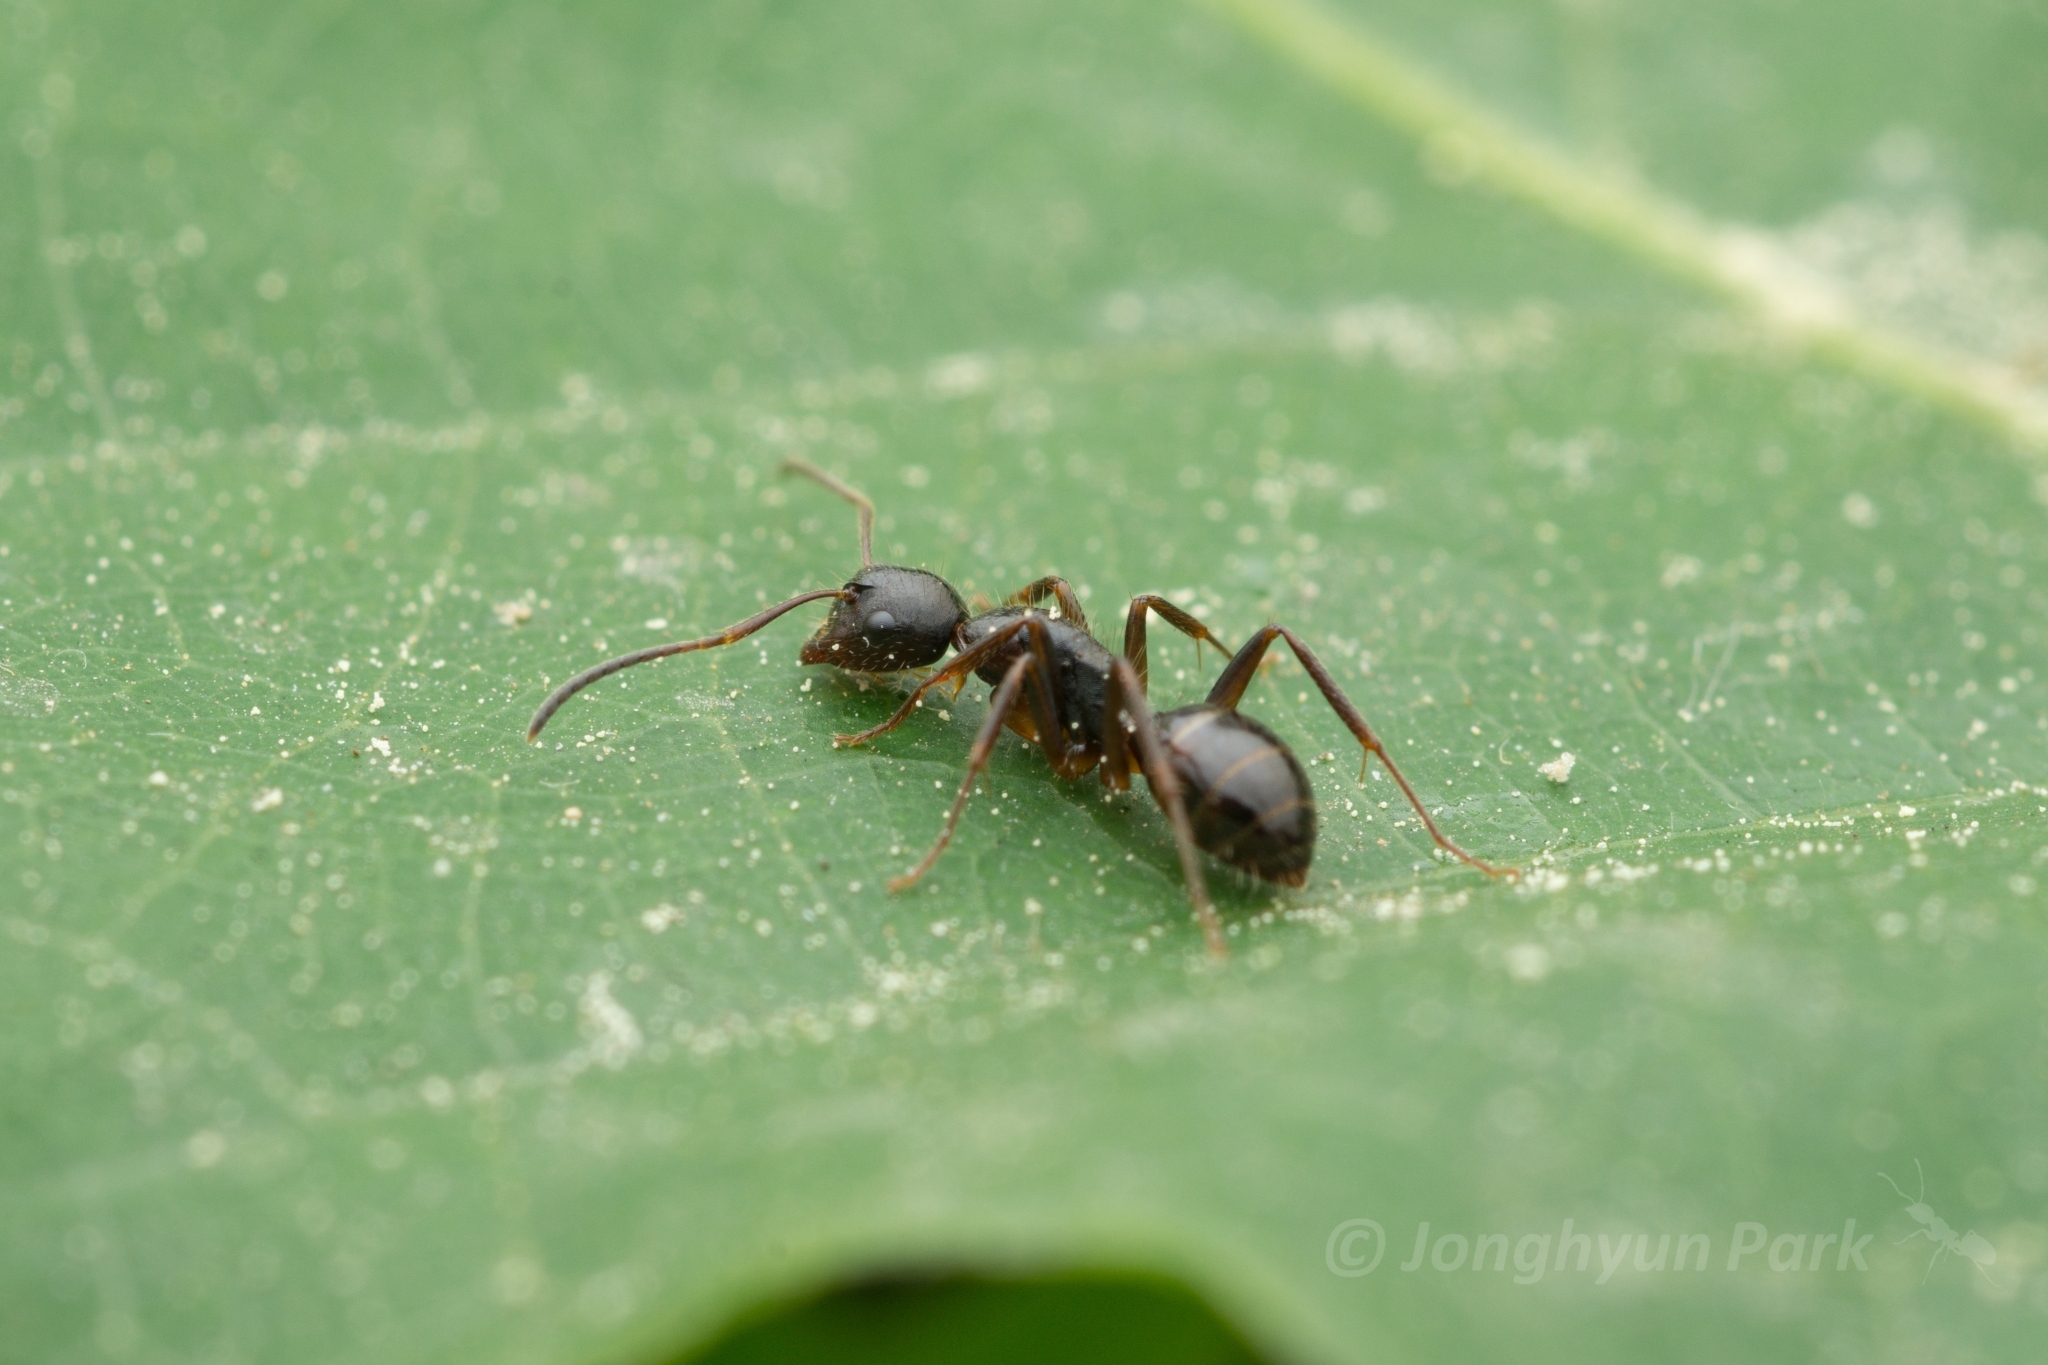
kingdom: Animalia
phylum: Arthropoda
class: Insecta
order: Hymenoptera
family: Formicidae
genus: Camponotus
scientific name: Camponotus nipponensis
